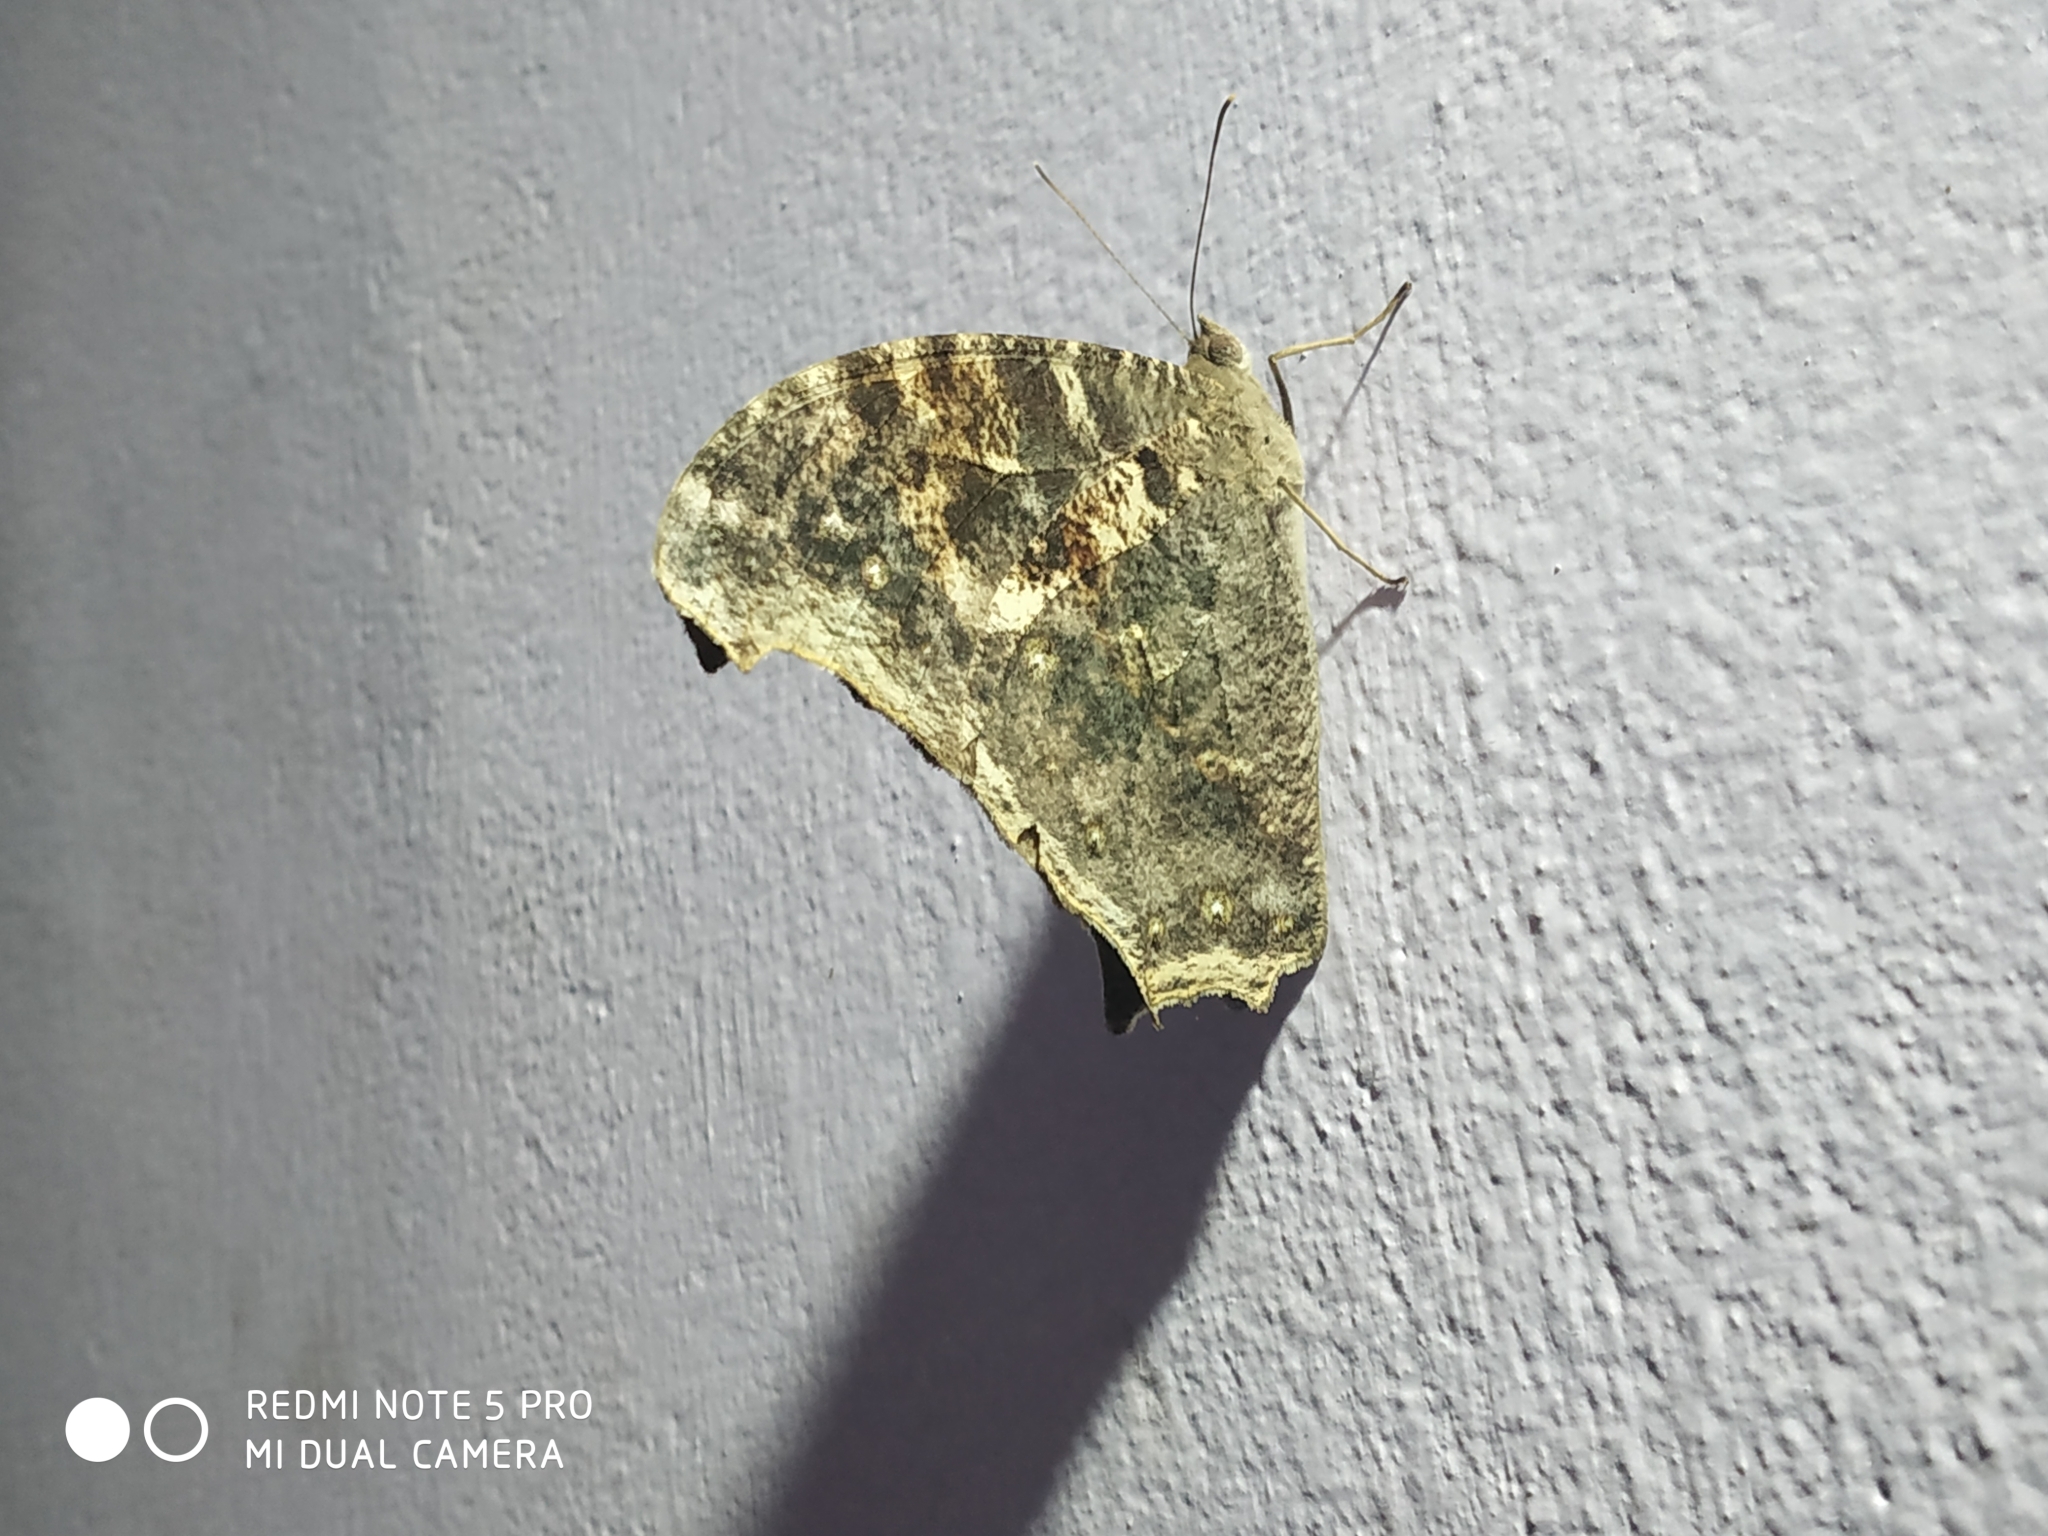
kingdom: Animalia
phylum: Arthropoda
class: Insecta
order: Lepidoptera
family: Nymphalidae
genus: Melanitis
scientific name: Melanitis leda
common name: Twilight brown
